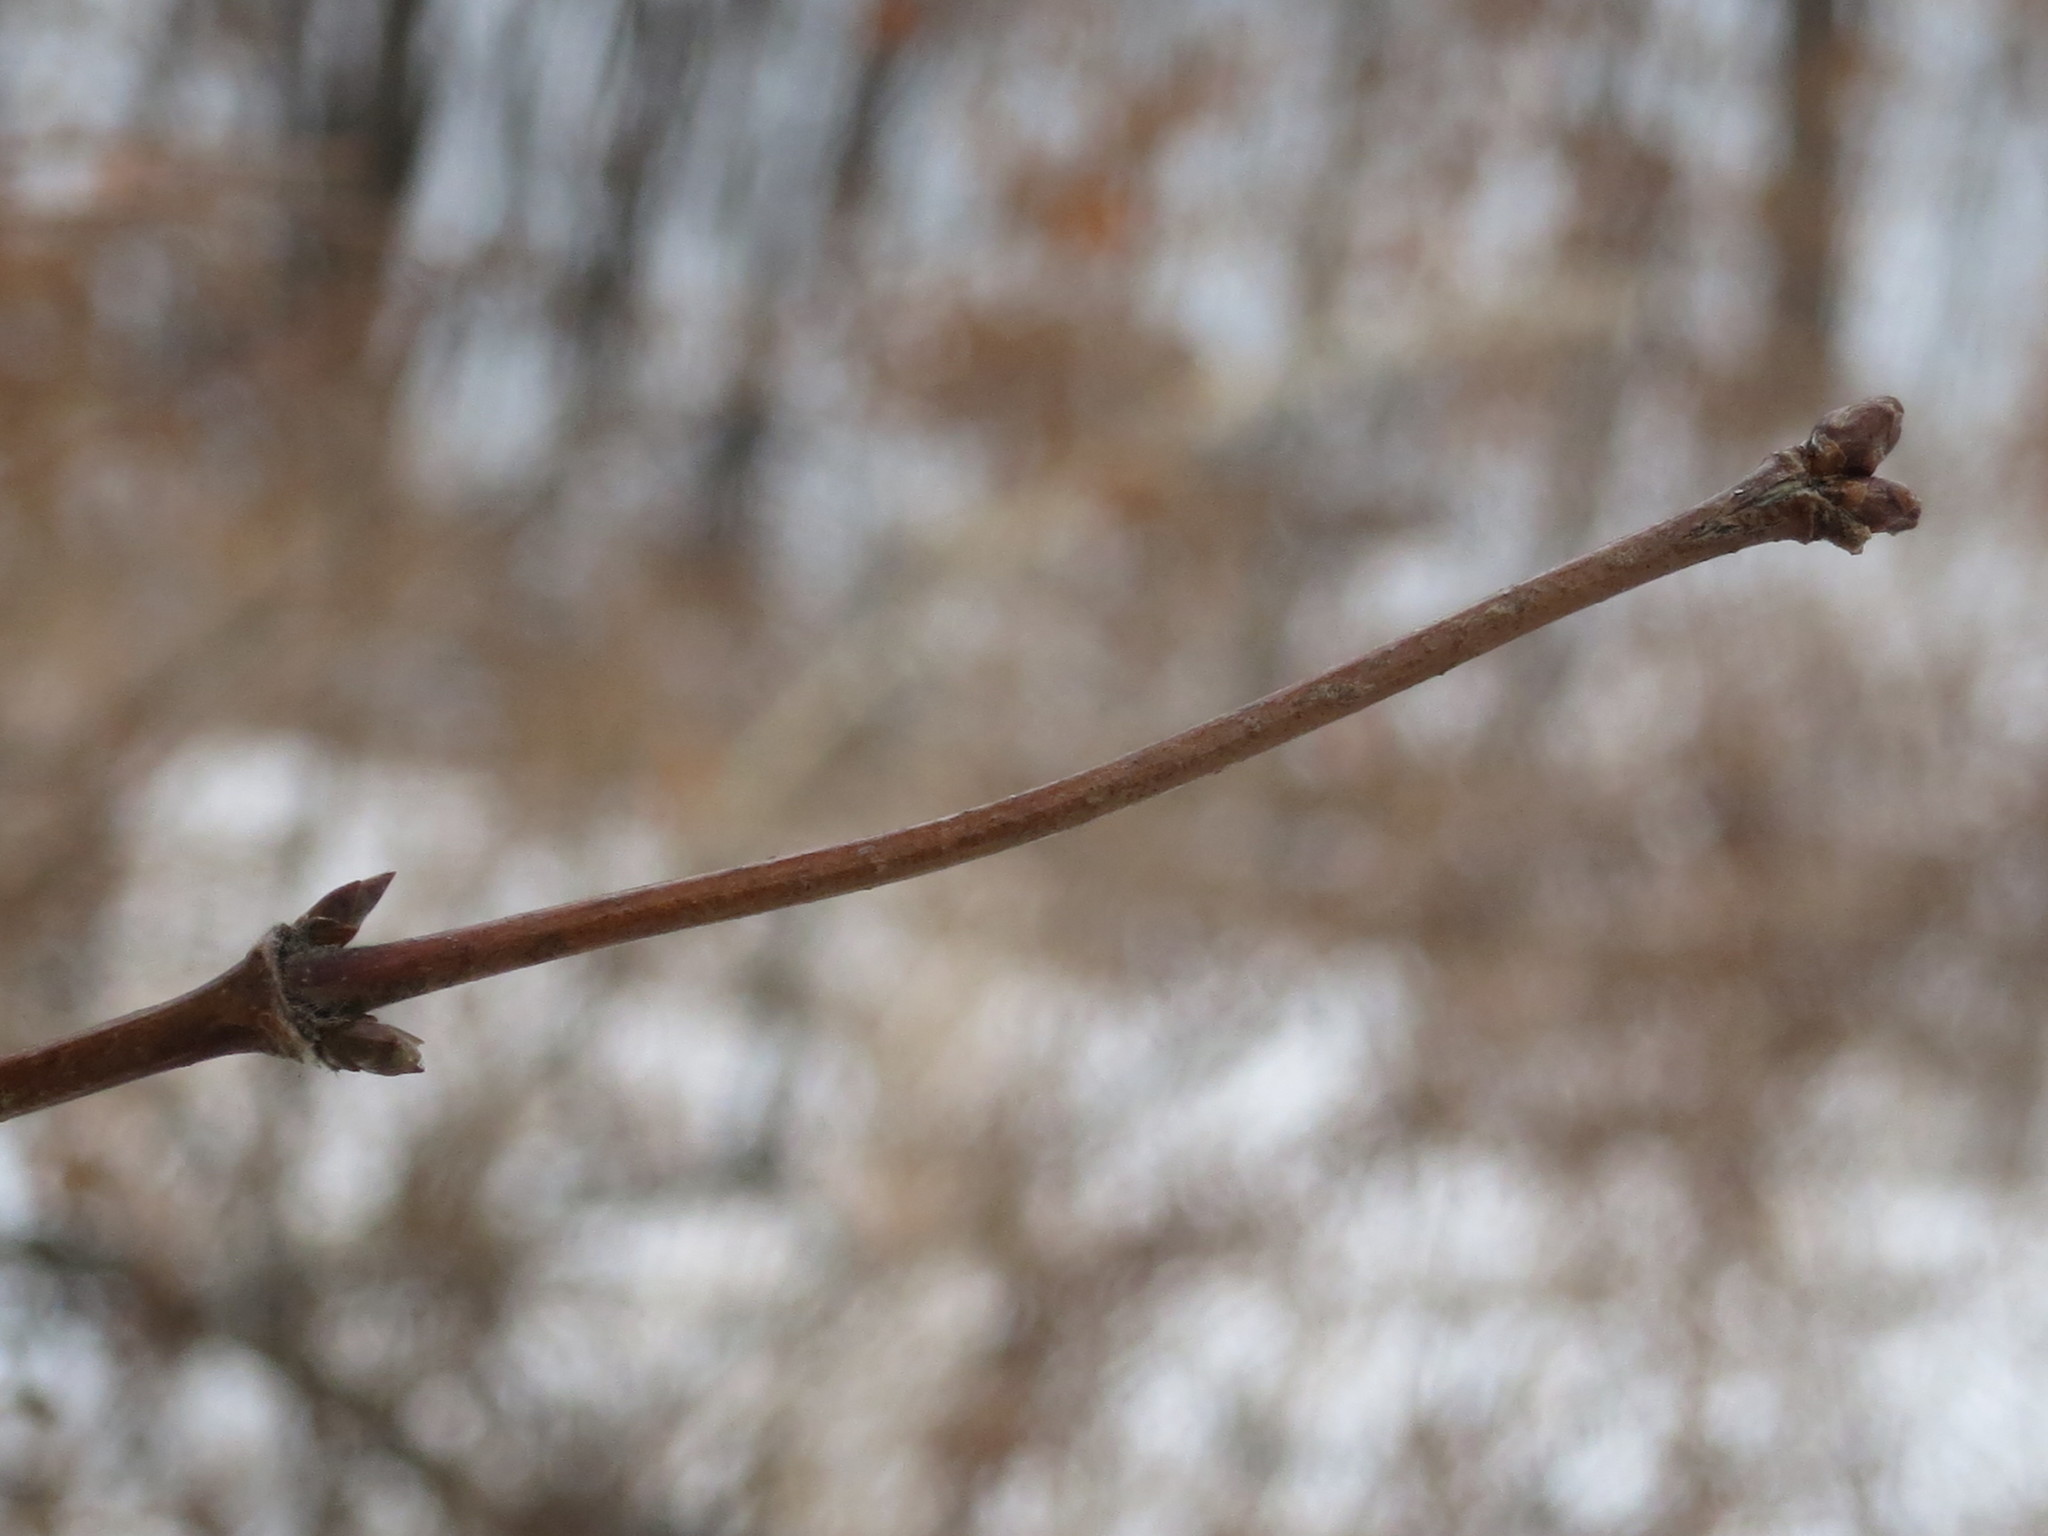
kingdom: Plantae
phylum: Tracheophyta
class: Magnoliopsida
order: Dipsacales
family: Caprifoliaceae
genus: Lonicera
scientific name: Lonicera praeflorens
